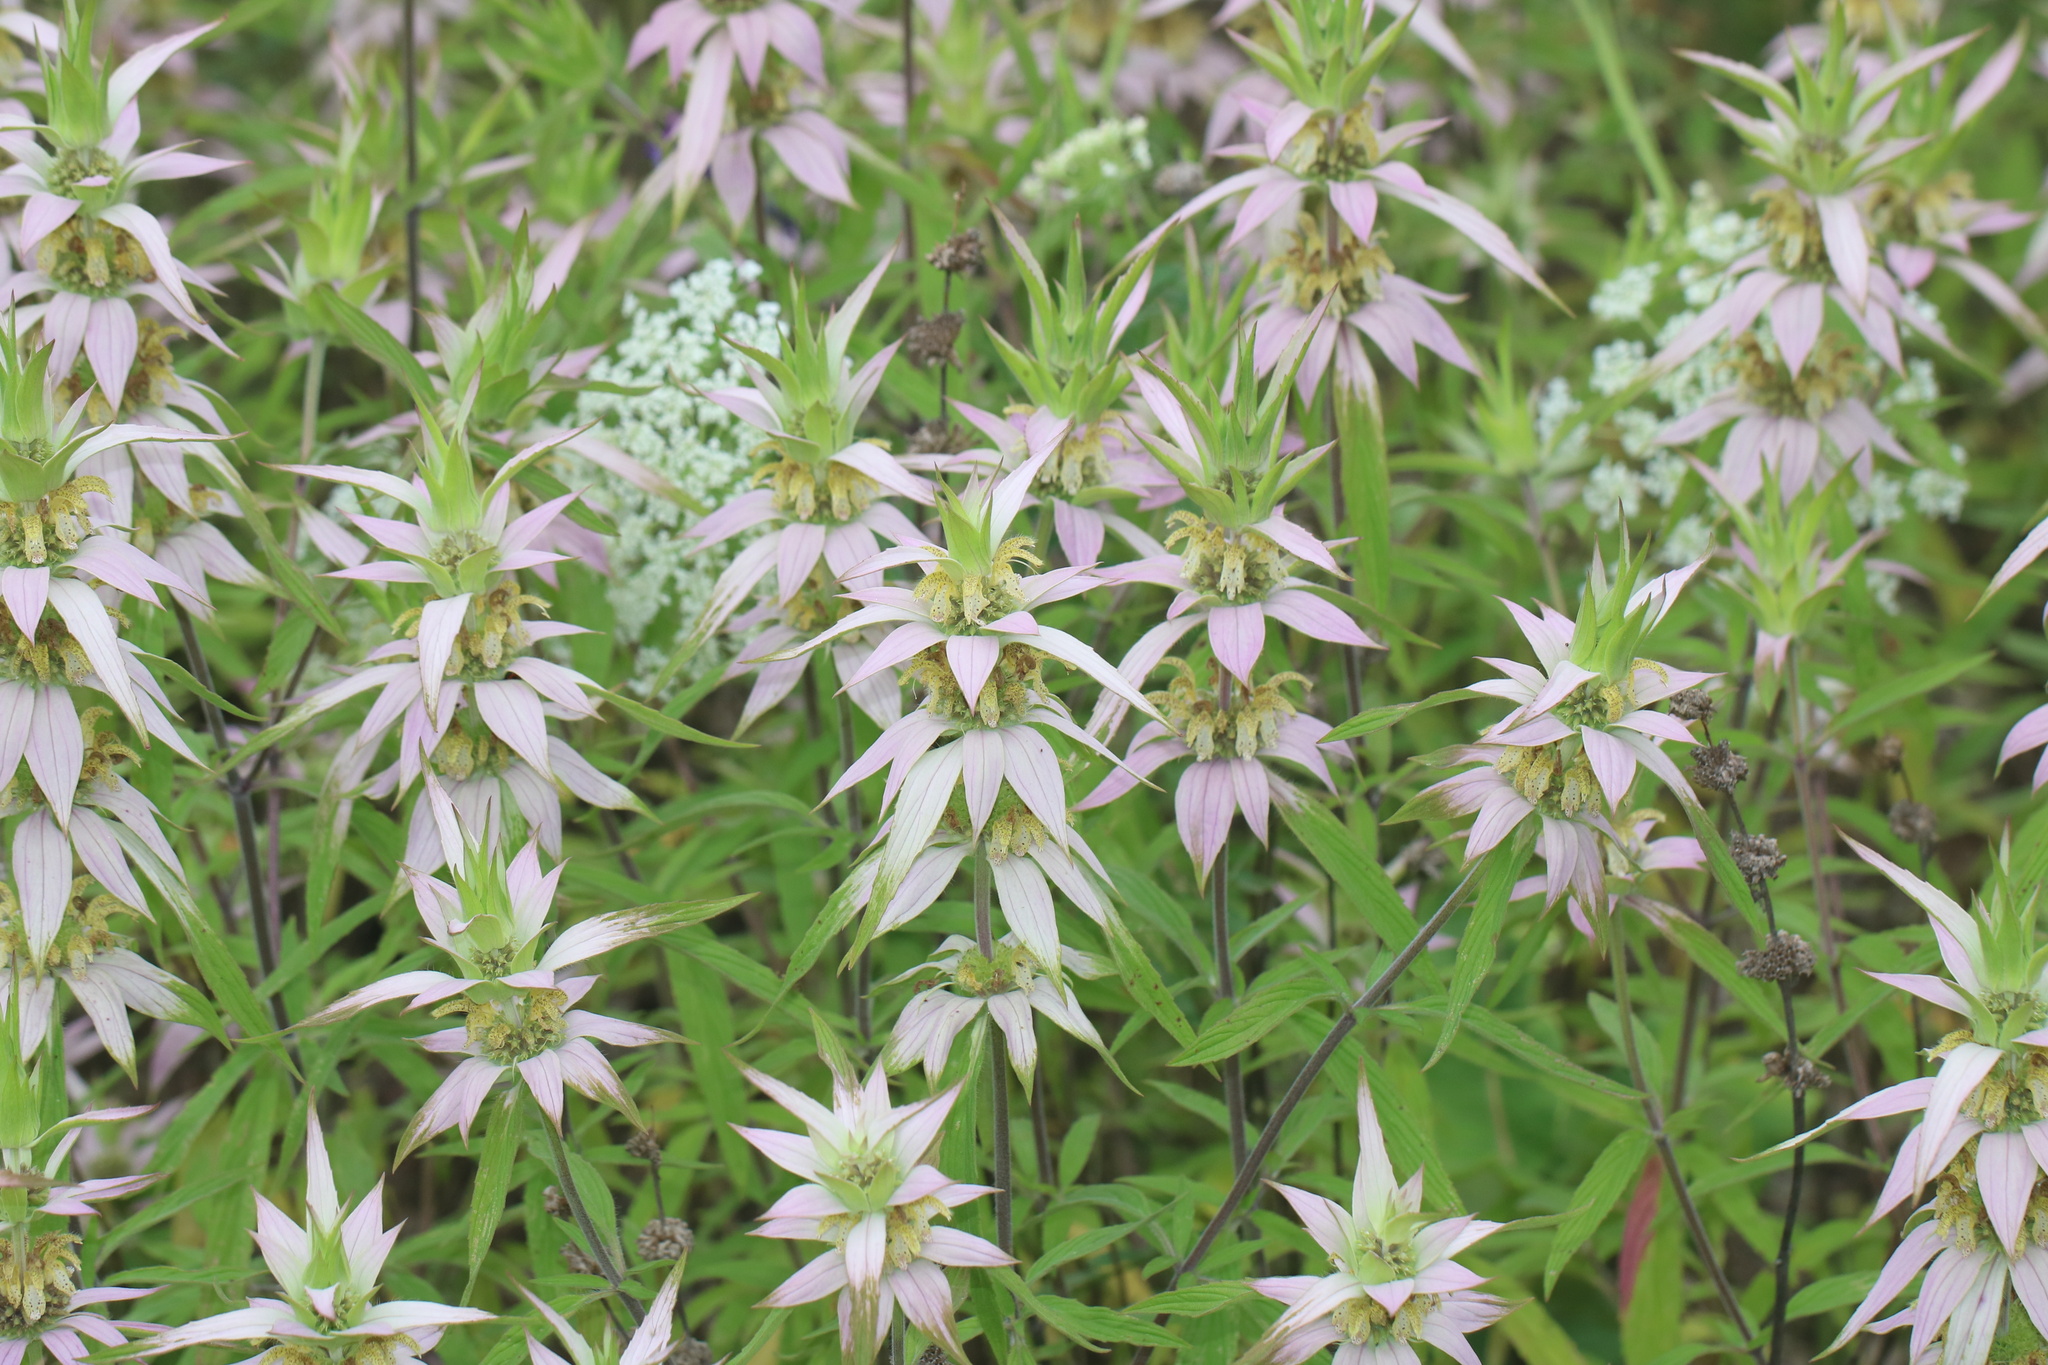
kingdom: Plantae
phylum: Tracheophyta
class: Magnoliopsida
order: Lamiales
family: Lamiaceae
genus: Monarda
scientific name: Monarda punctata
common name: Dotted monarda
